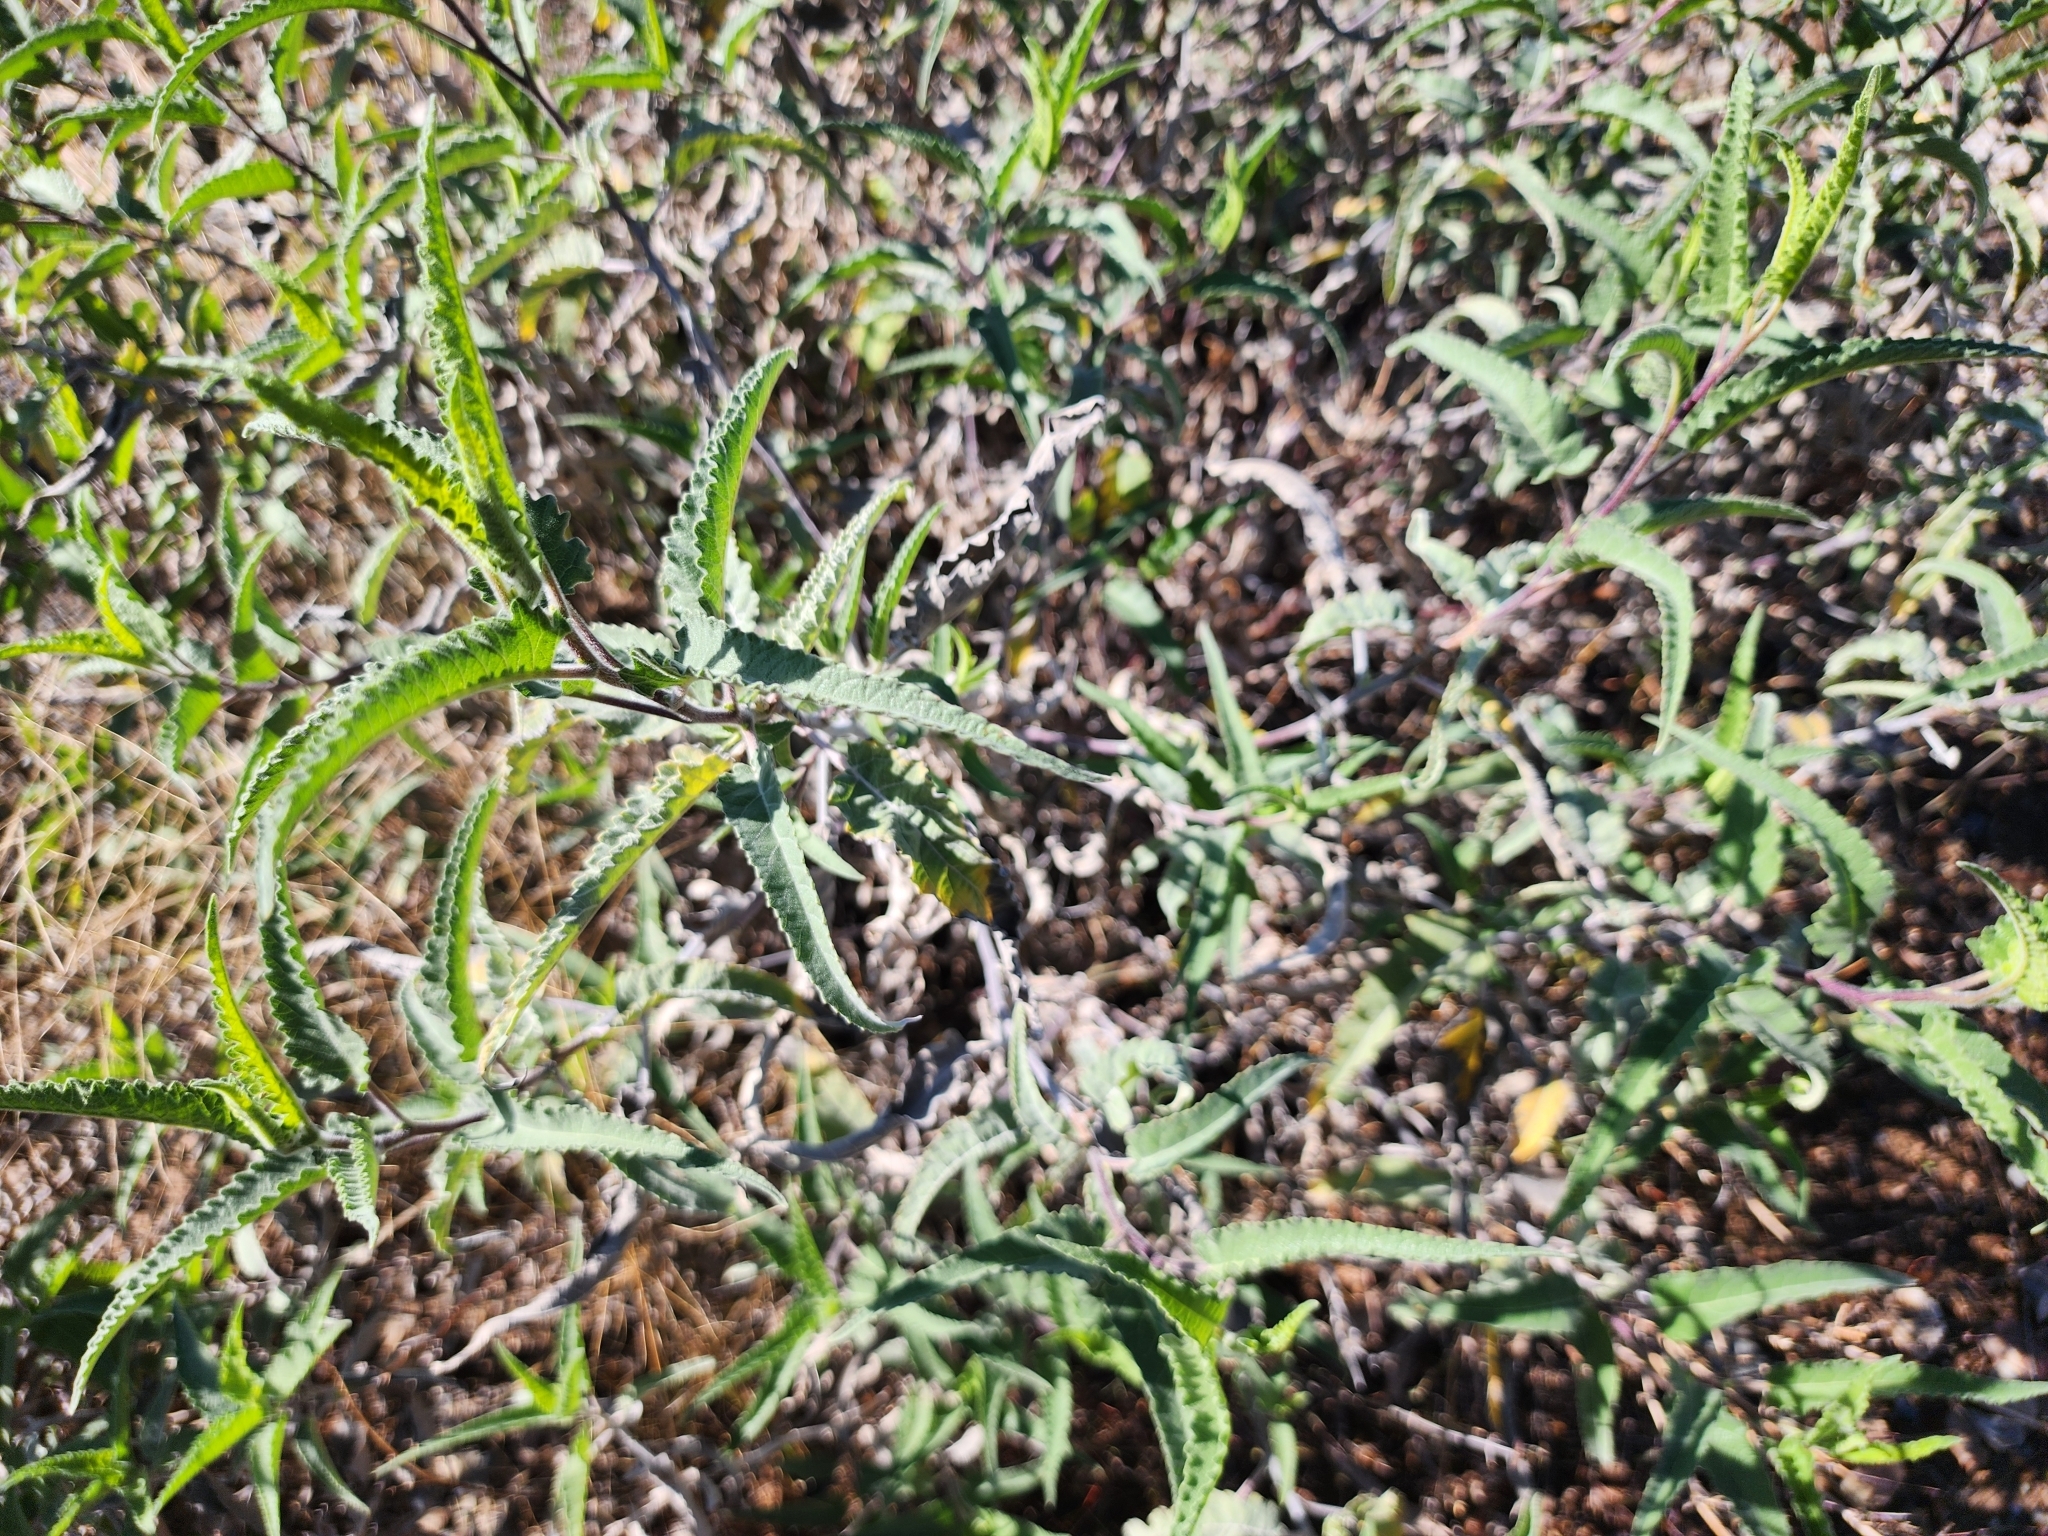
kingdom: Plantae
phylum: Tracheophyta
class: Magnoliopsida
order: Asterales
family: Asteraceae
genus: Ambrosia
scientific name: Ambrosia ambrosioides
